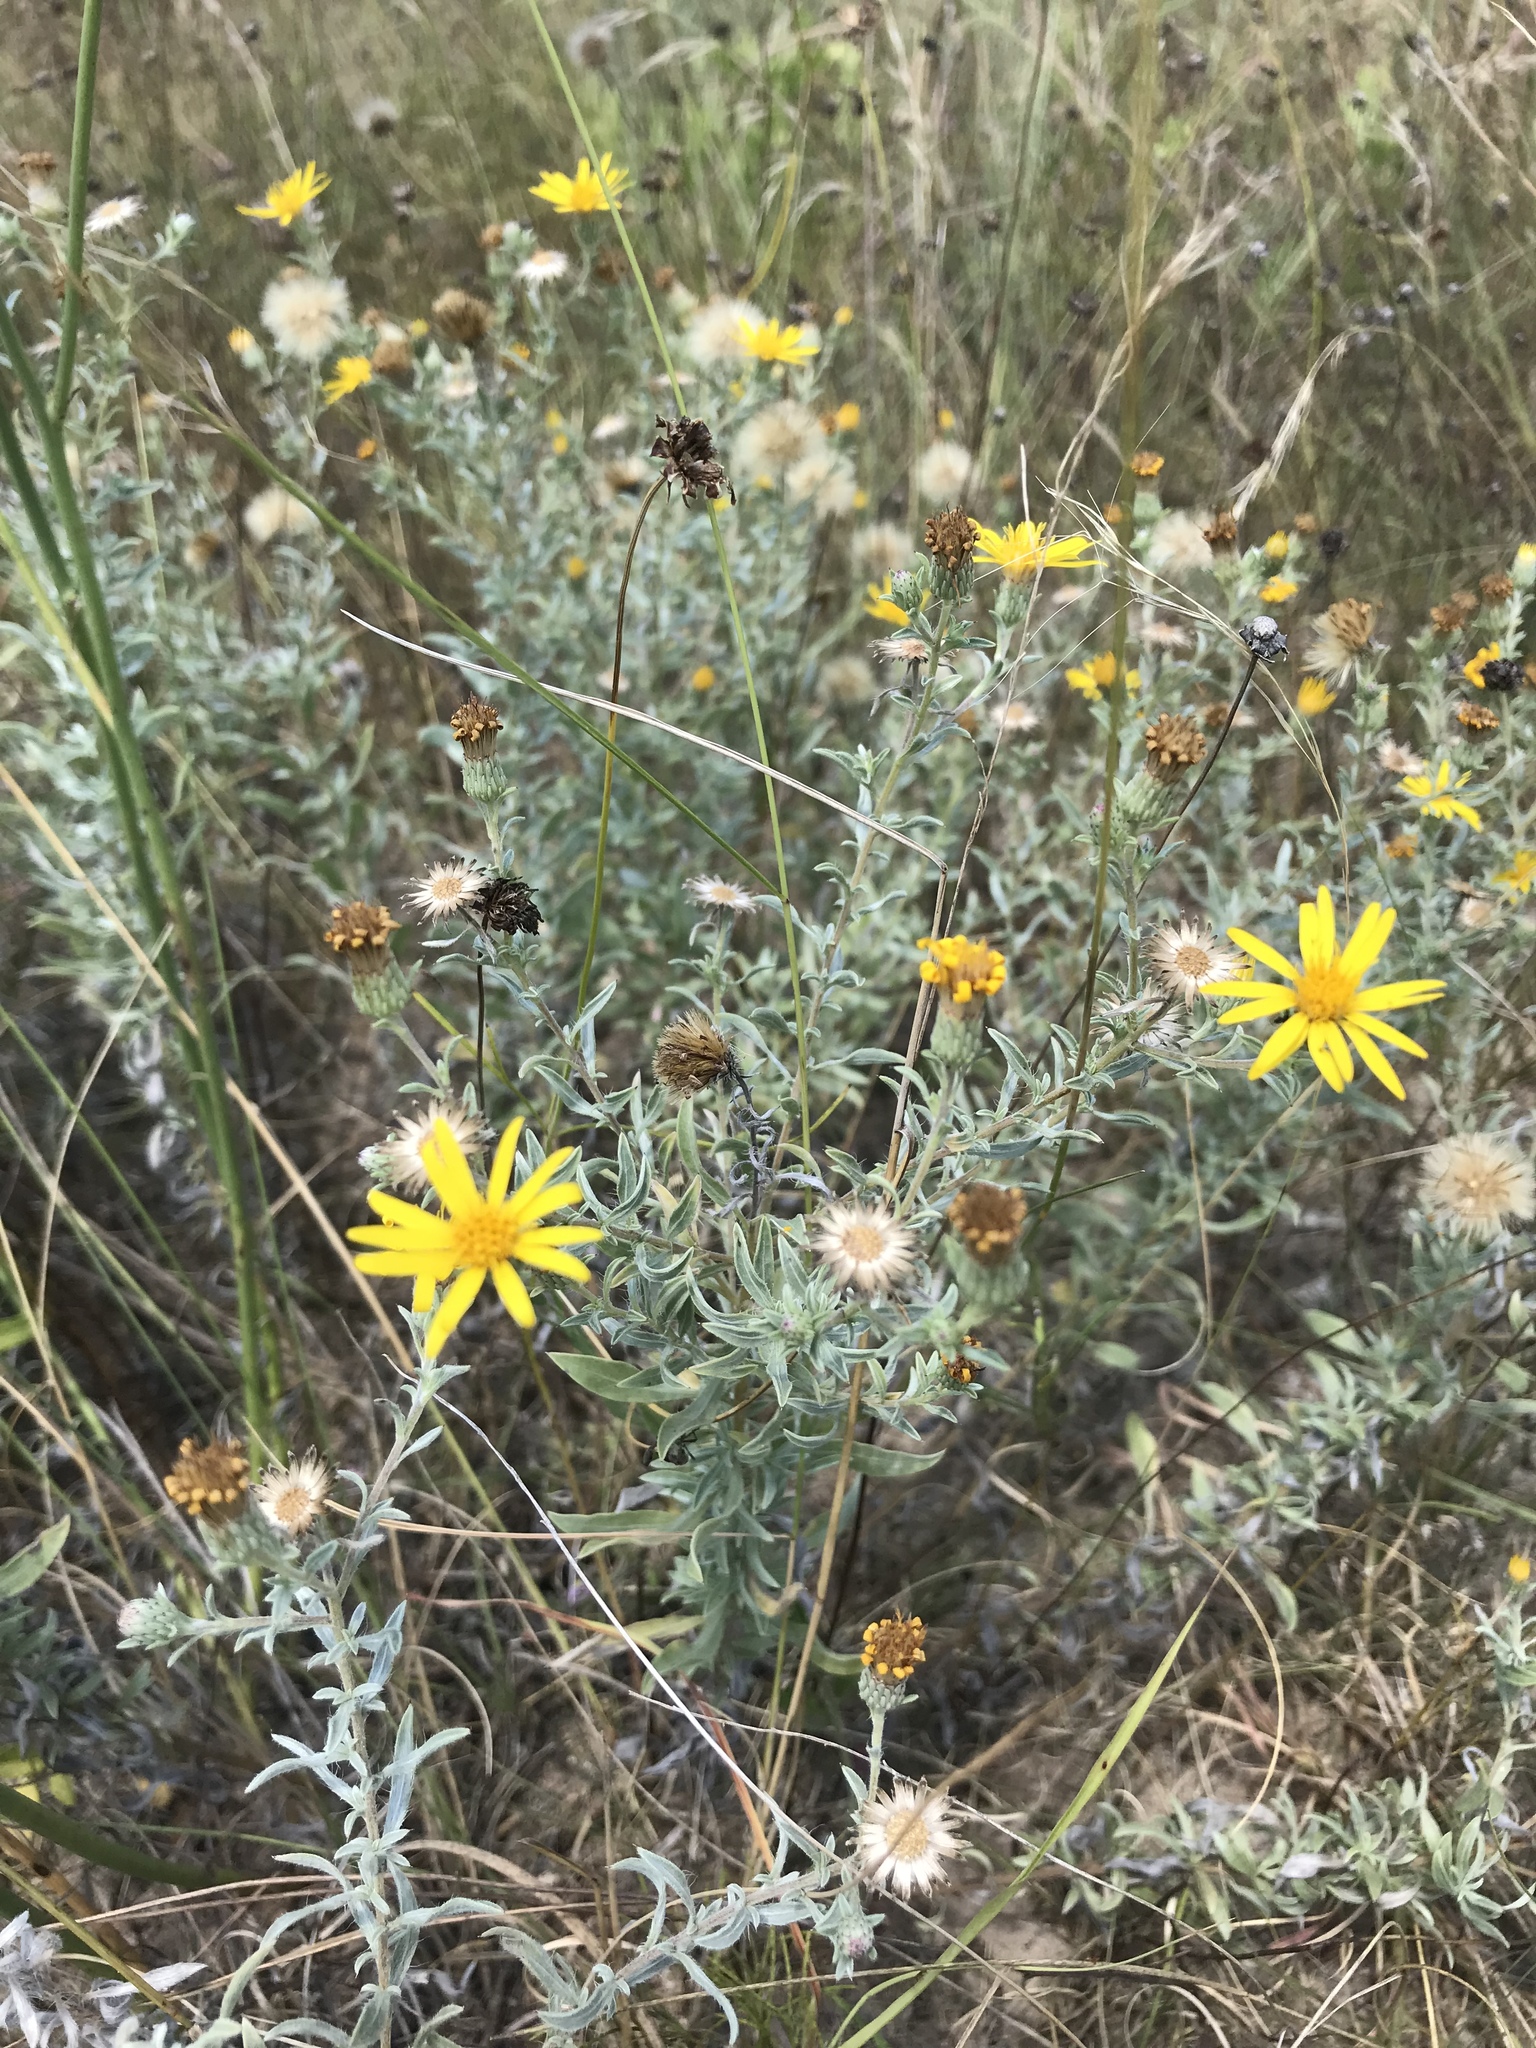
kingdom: Plantae
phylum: Tracheophyta
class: Magnoliopsida
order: Asterales
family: Asteraceae
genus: Heterotheca
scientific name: Heterotheca canescens
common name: Hoary golden-aster
